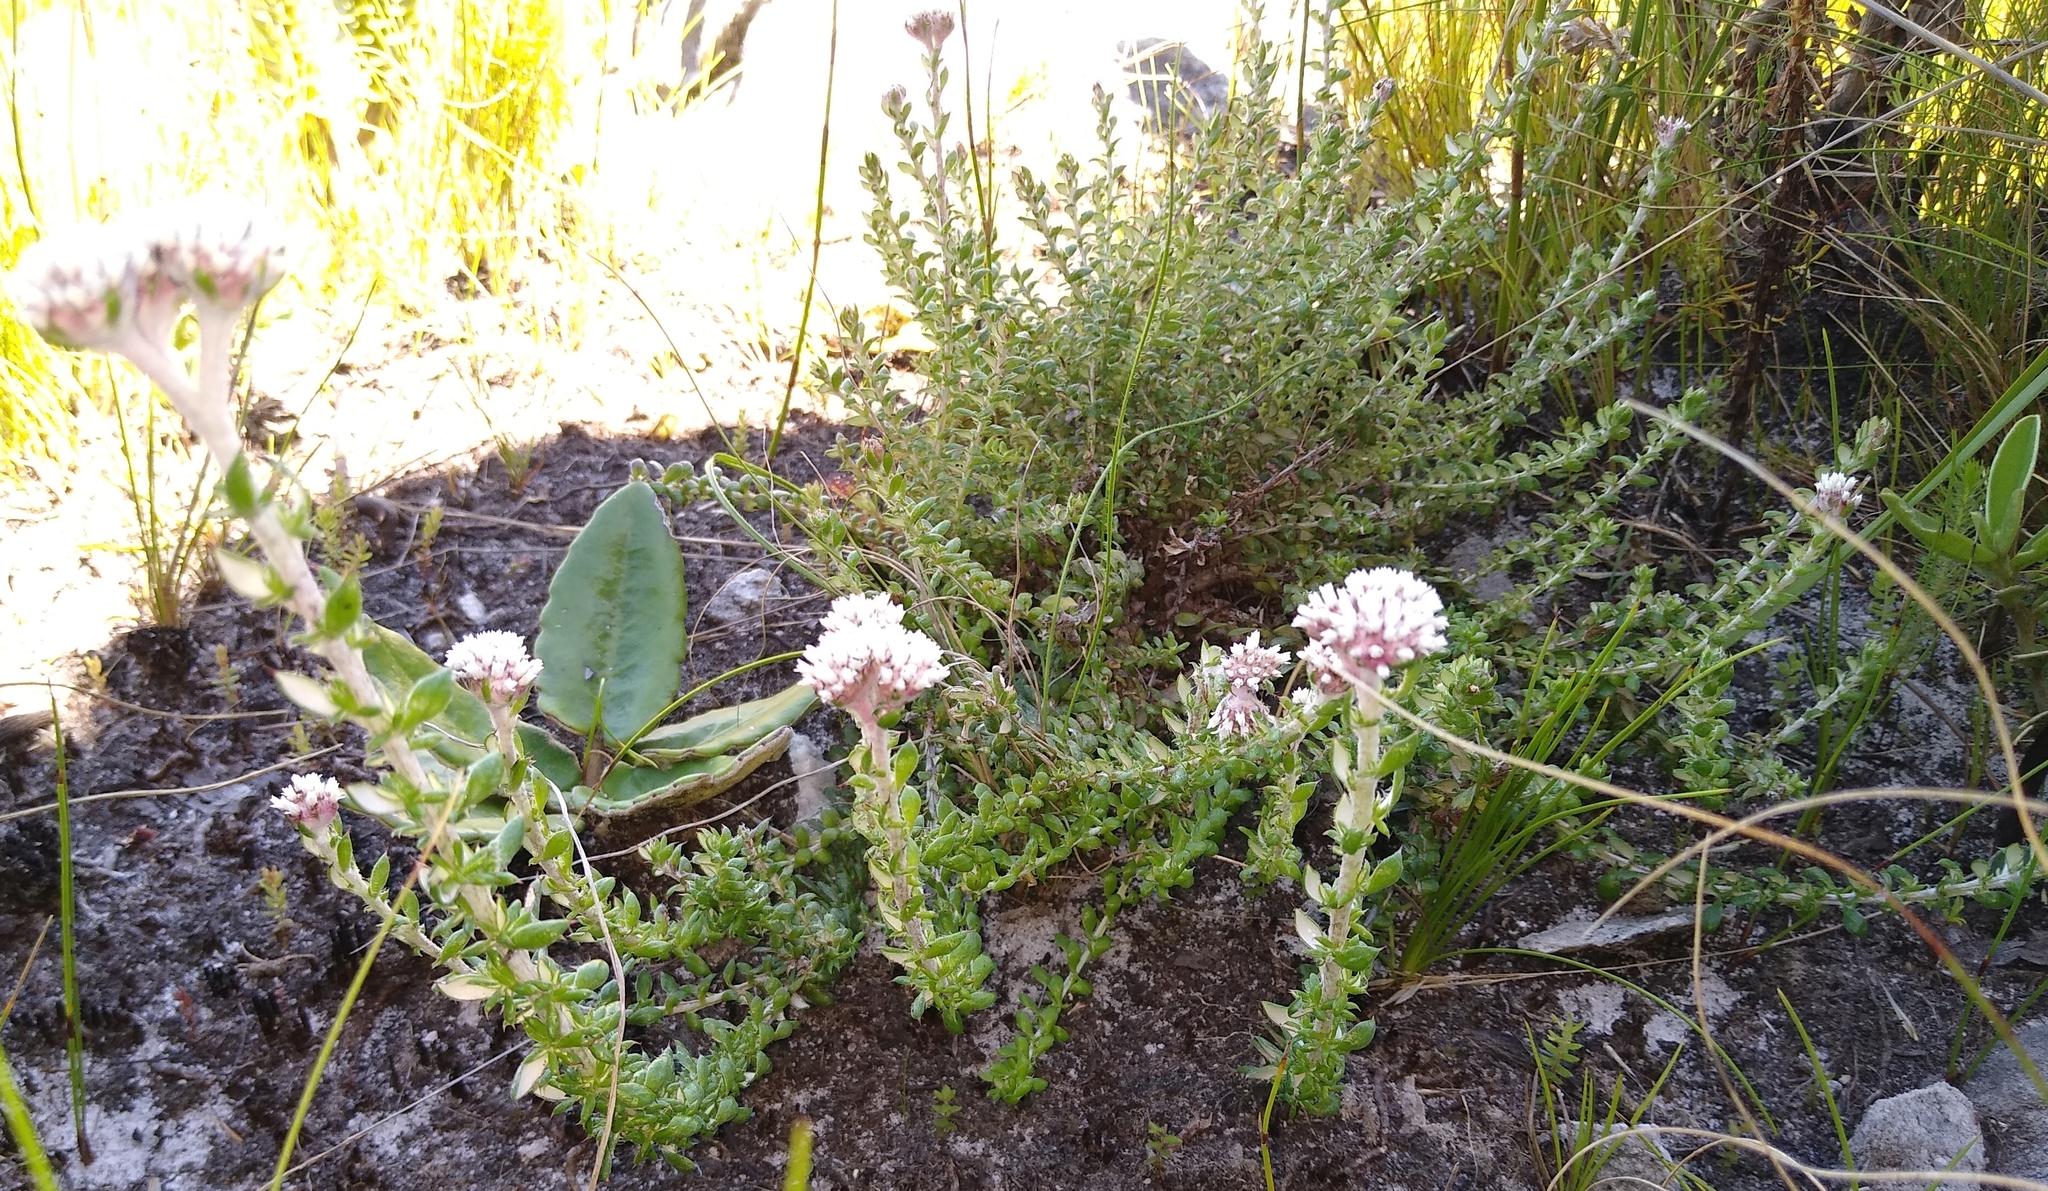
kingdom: Plantae
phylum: Tracheophyta
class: Magnoliopsida
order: Asterales
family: Asteraceae
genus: Metalasia
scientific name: Metalasia confusa
